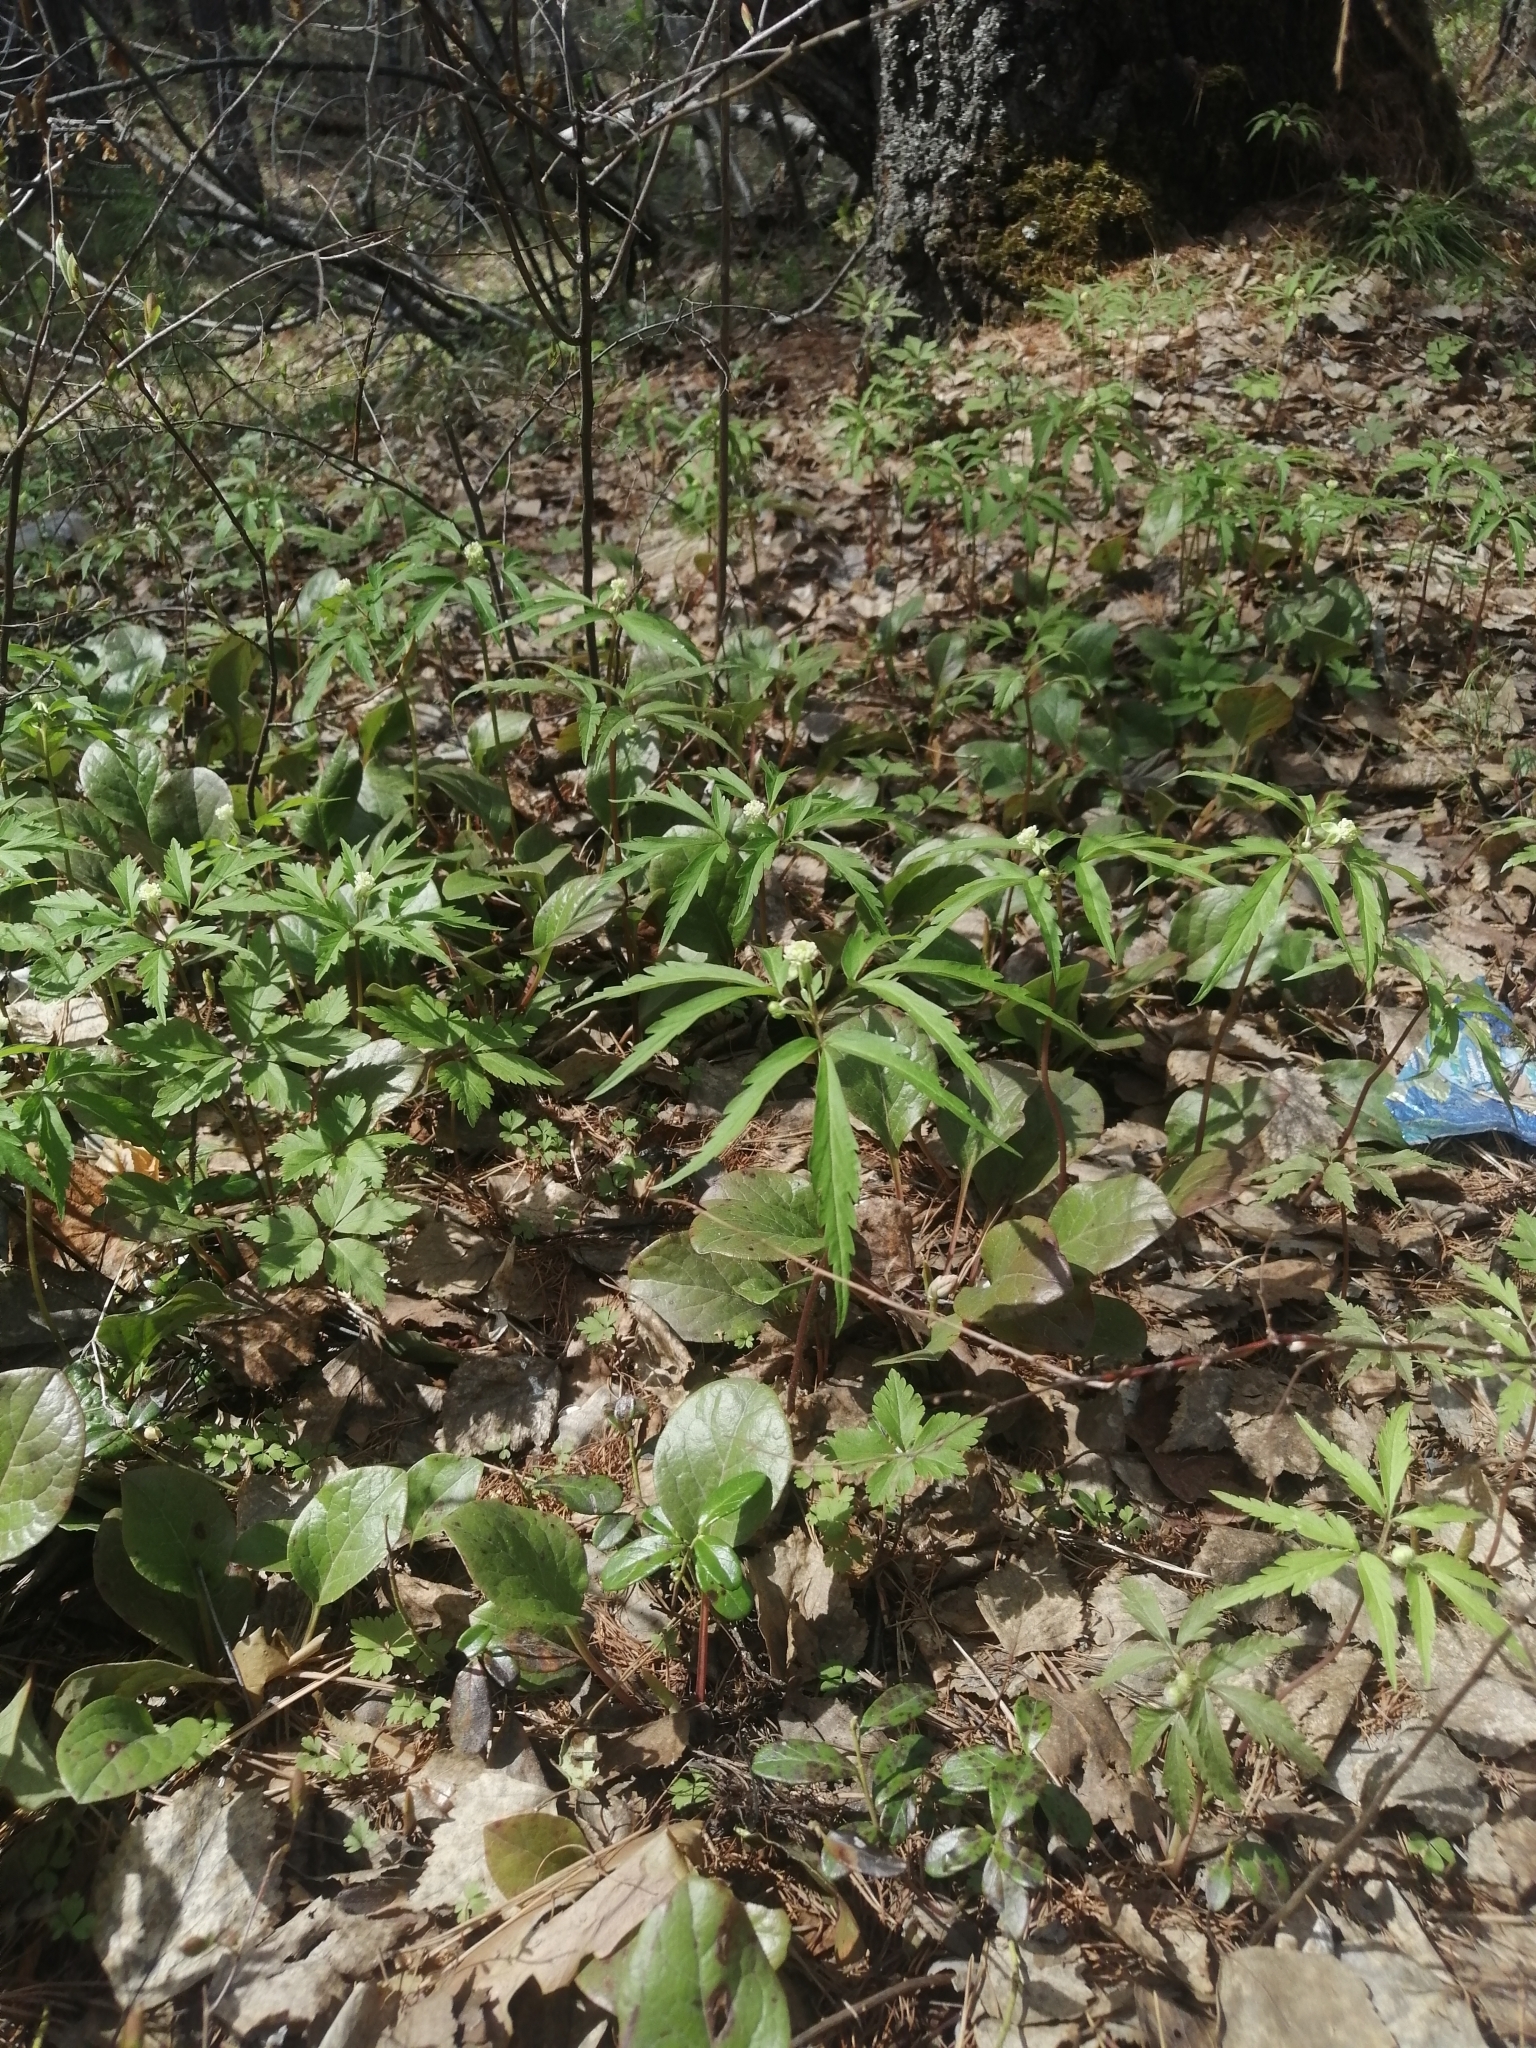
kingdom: Plantae
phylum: Tracheophyta
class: Magnoliopsida
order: Ranunculales
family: Ranunculaceae
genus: Anemone
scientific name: Anemone reflexa
